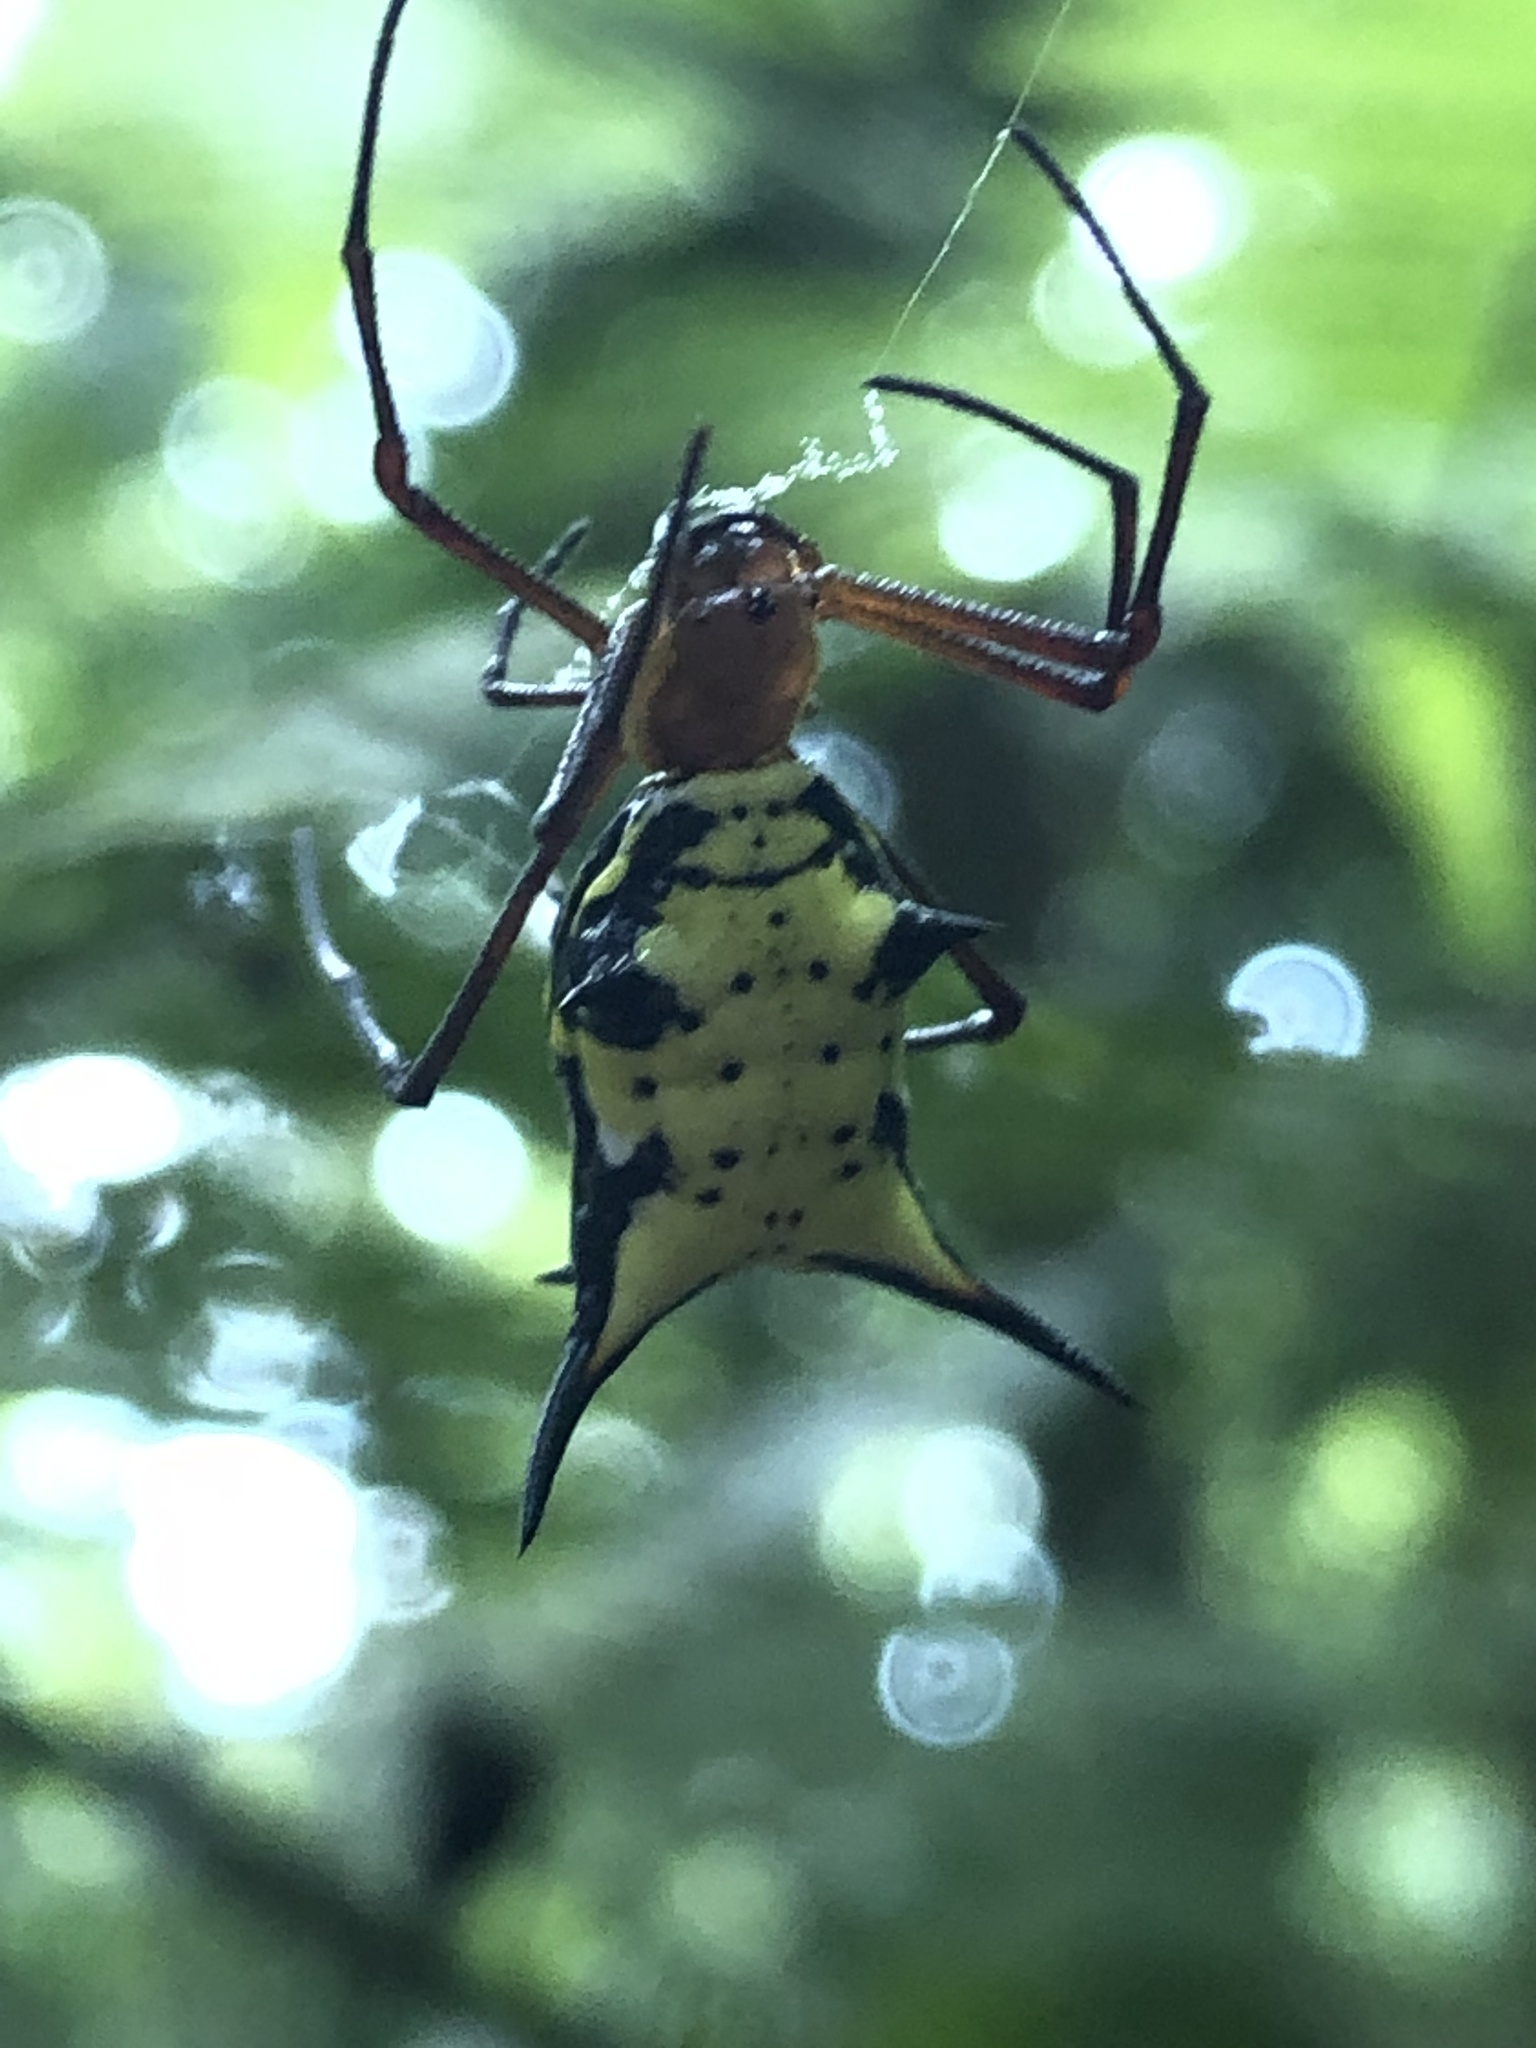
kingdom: Animalia
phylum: Arthropoda
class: Arachnida
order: Araneae
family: Araneidae
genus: Micrathena
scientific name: Micrathena miles
